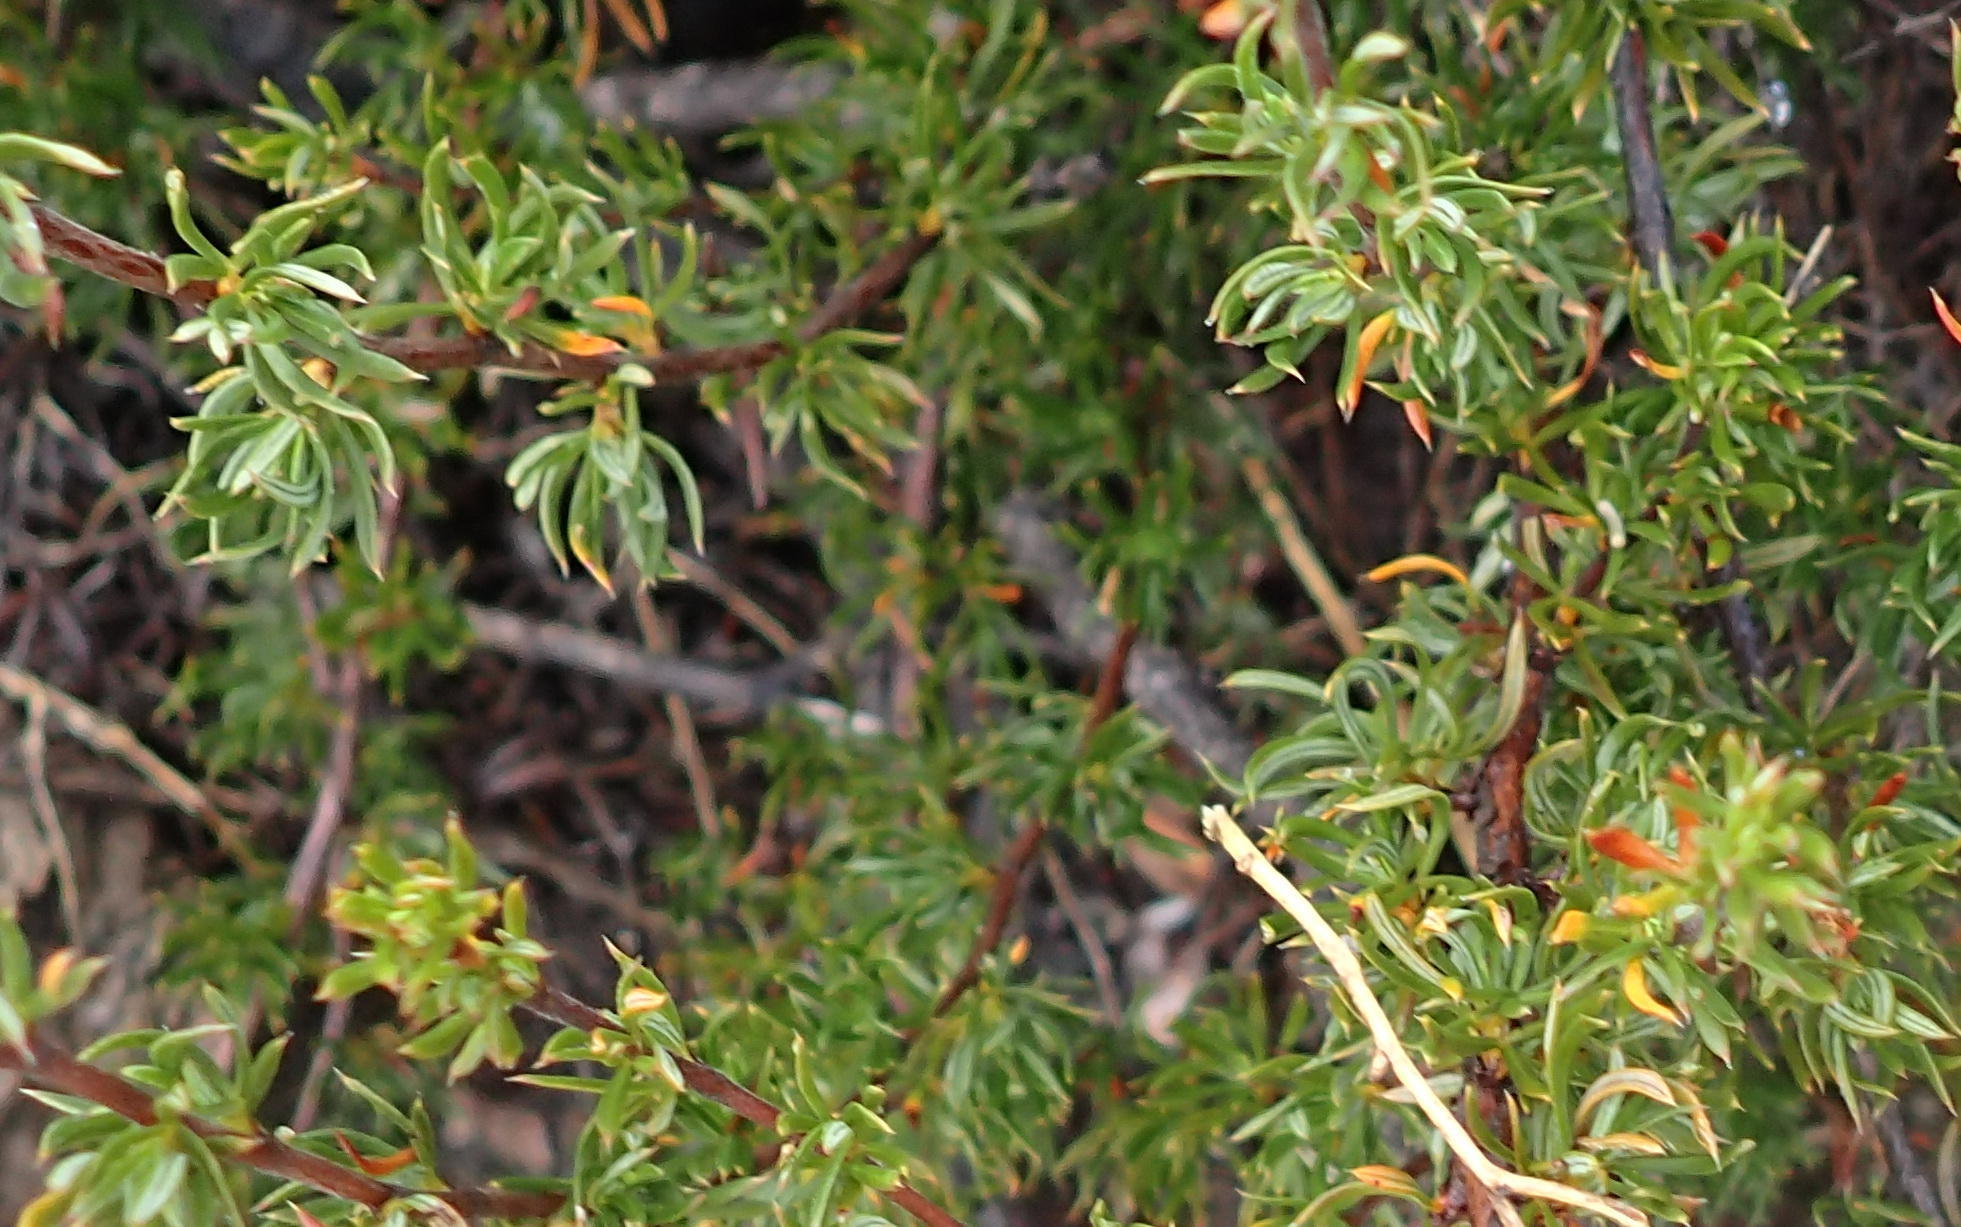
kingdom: Plantae
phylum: Tracheophyta
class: Magnoliopsida
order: Rosales
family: Rosaceae
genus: Cliffortia
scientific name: Cliffortia arcuata
